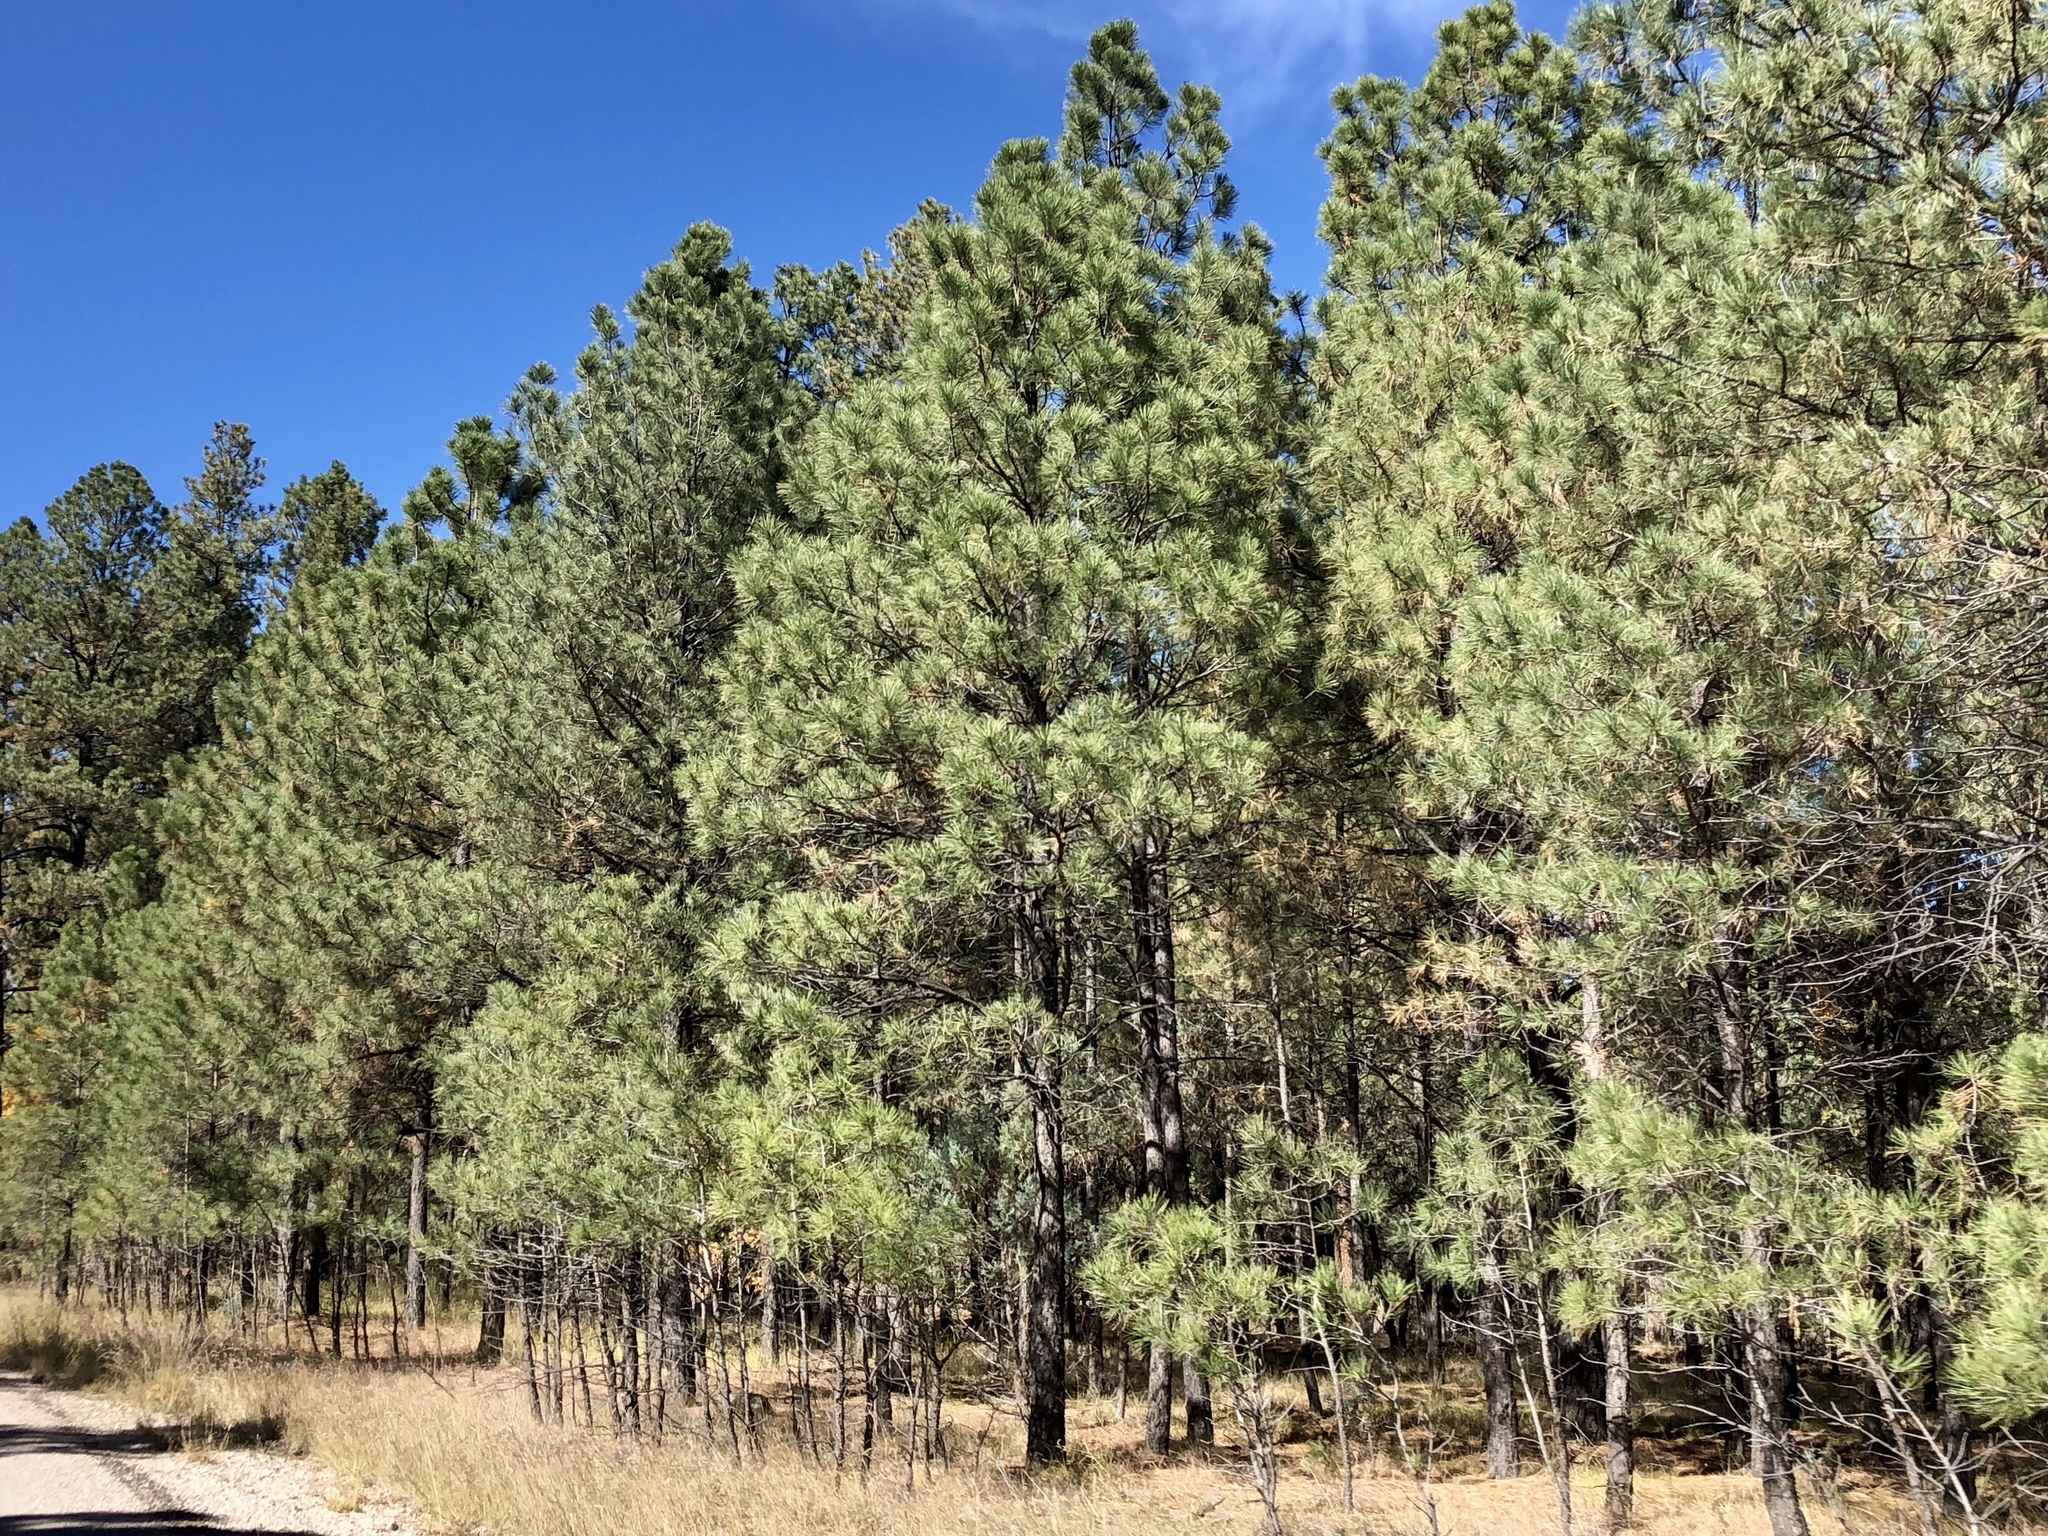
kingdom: Plantae
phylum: Tracheophyta
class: Pinopsida
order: Pinales
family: Pinaceae
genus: Pinus
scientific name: Pinus ponderosa
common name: Western yellow-pine
